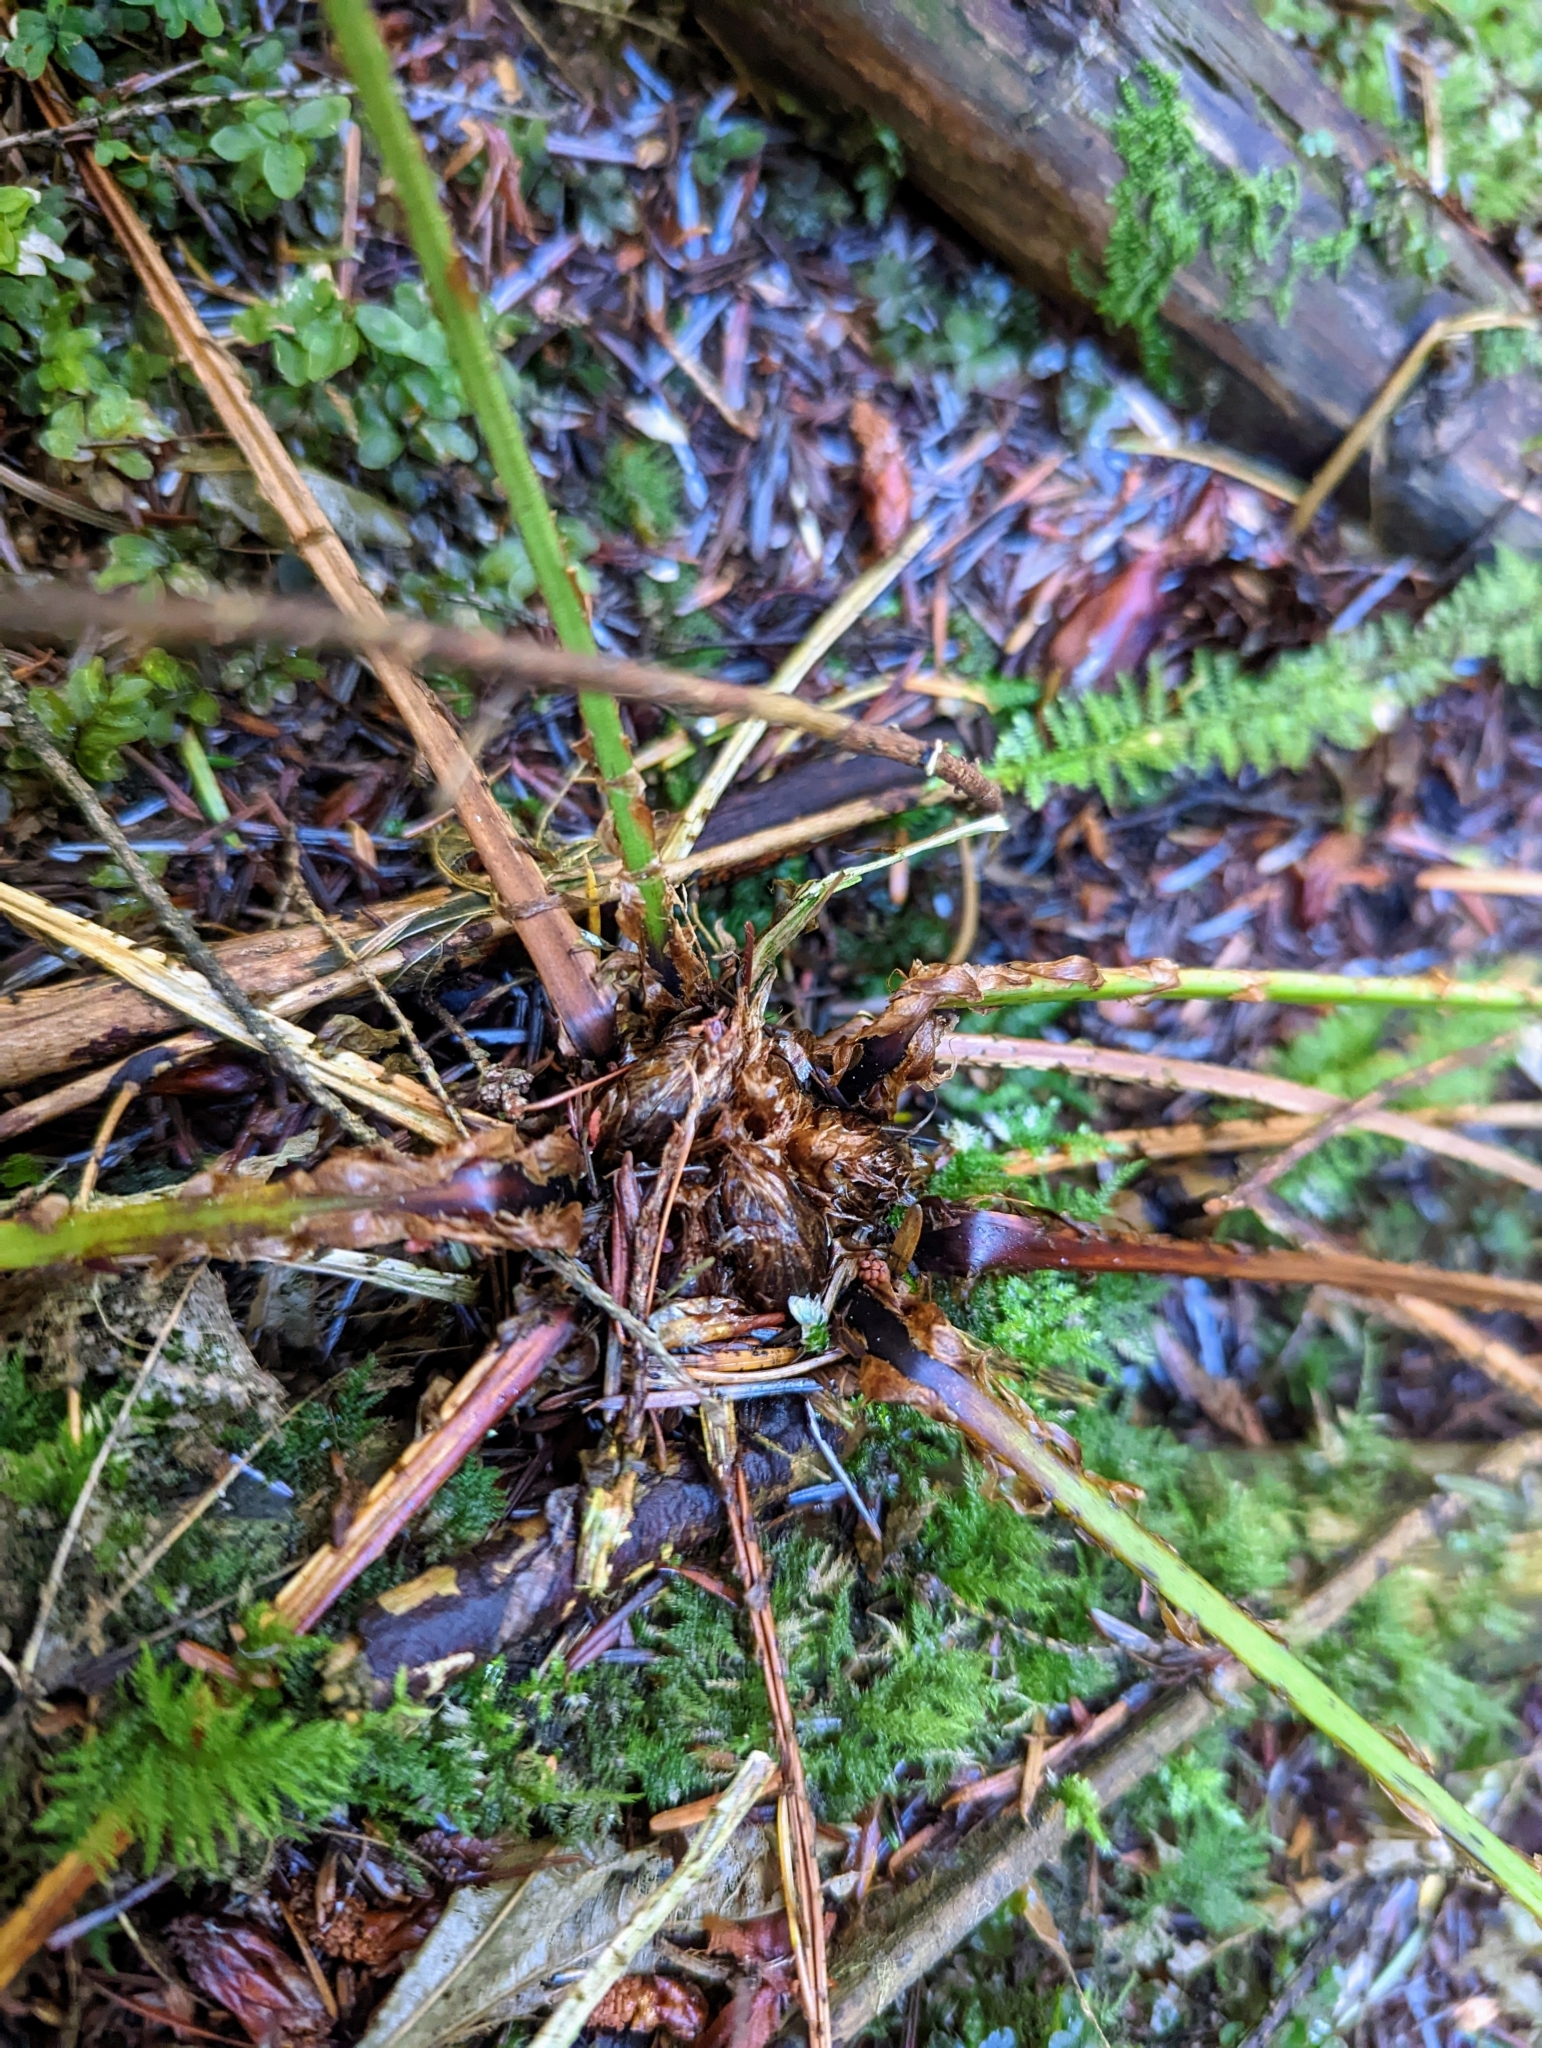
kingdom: Plantae
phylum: Tracheophyta
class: Polypodiopsida
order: Polypodiales
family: Dryopteridaceae
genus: Dryopteris
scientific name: Dryopteris expansa
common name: Northern buckler fern
